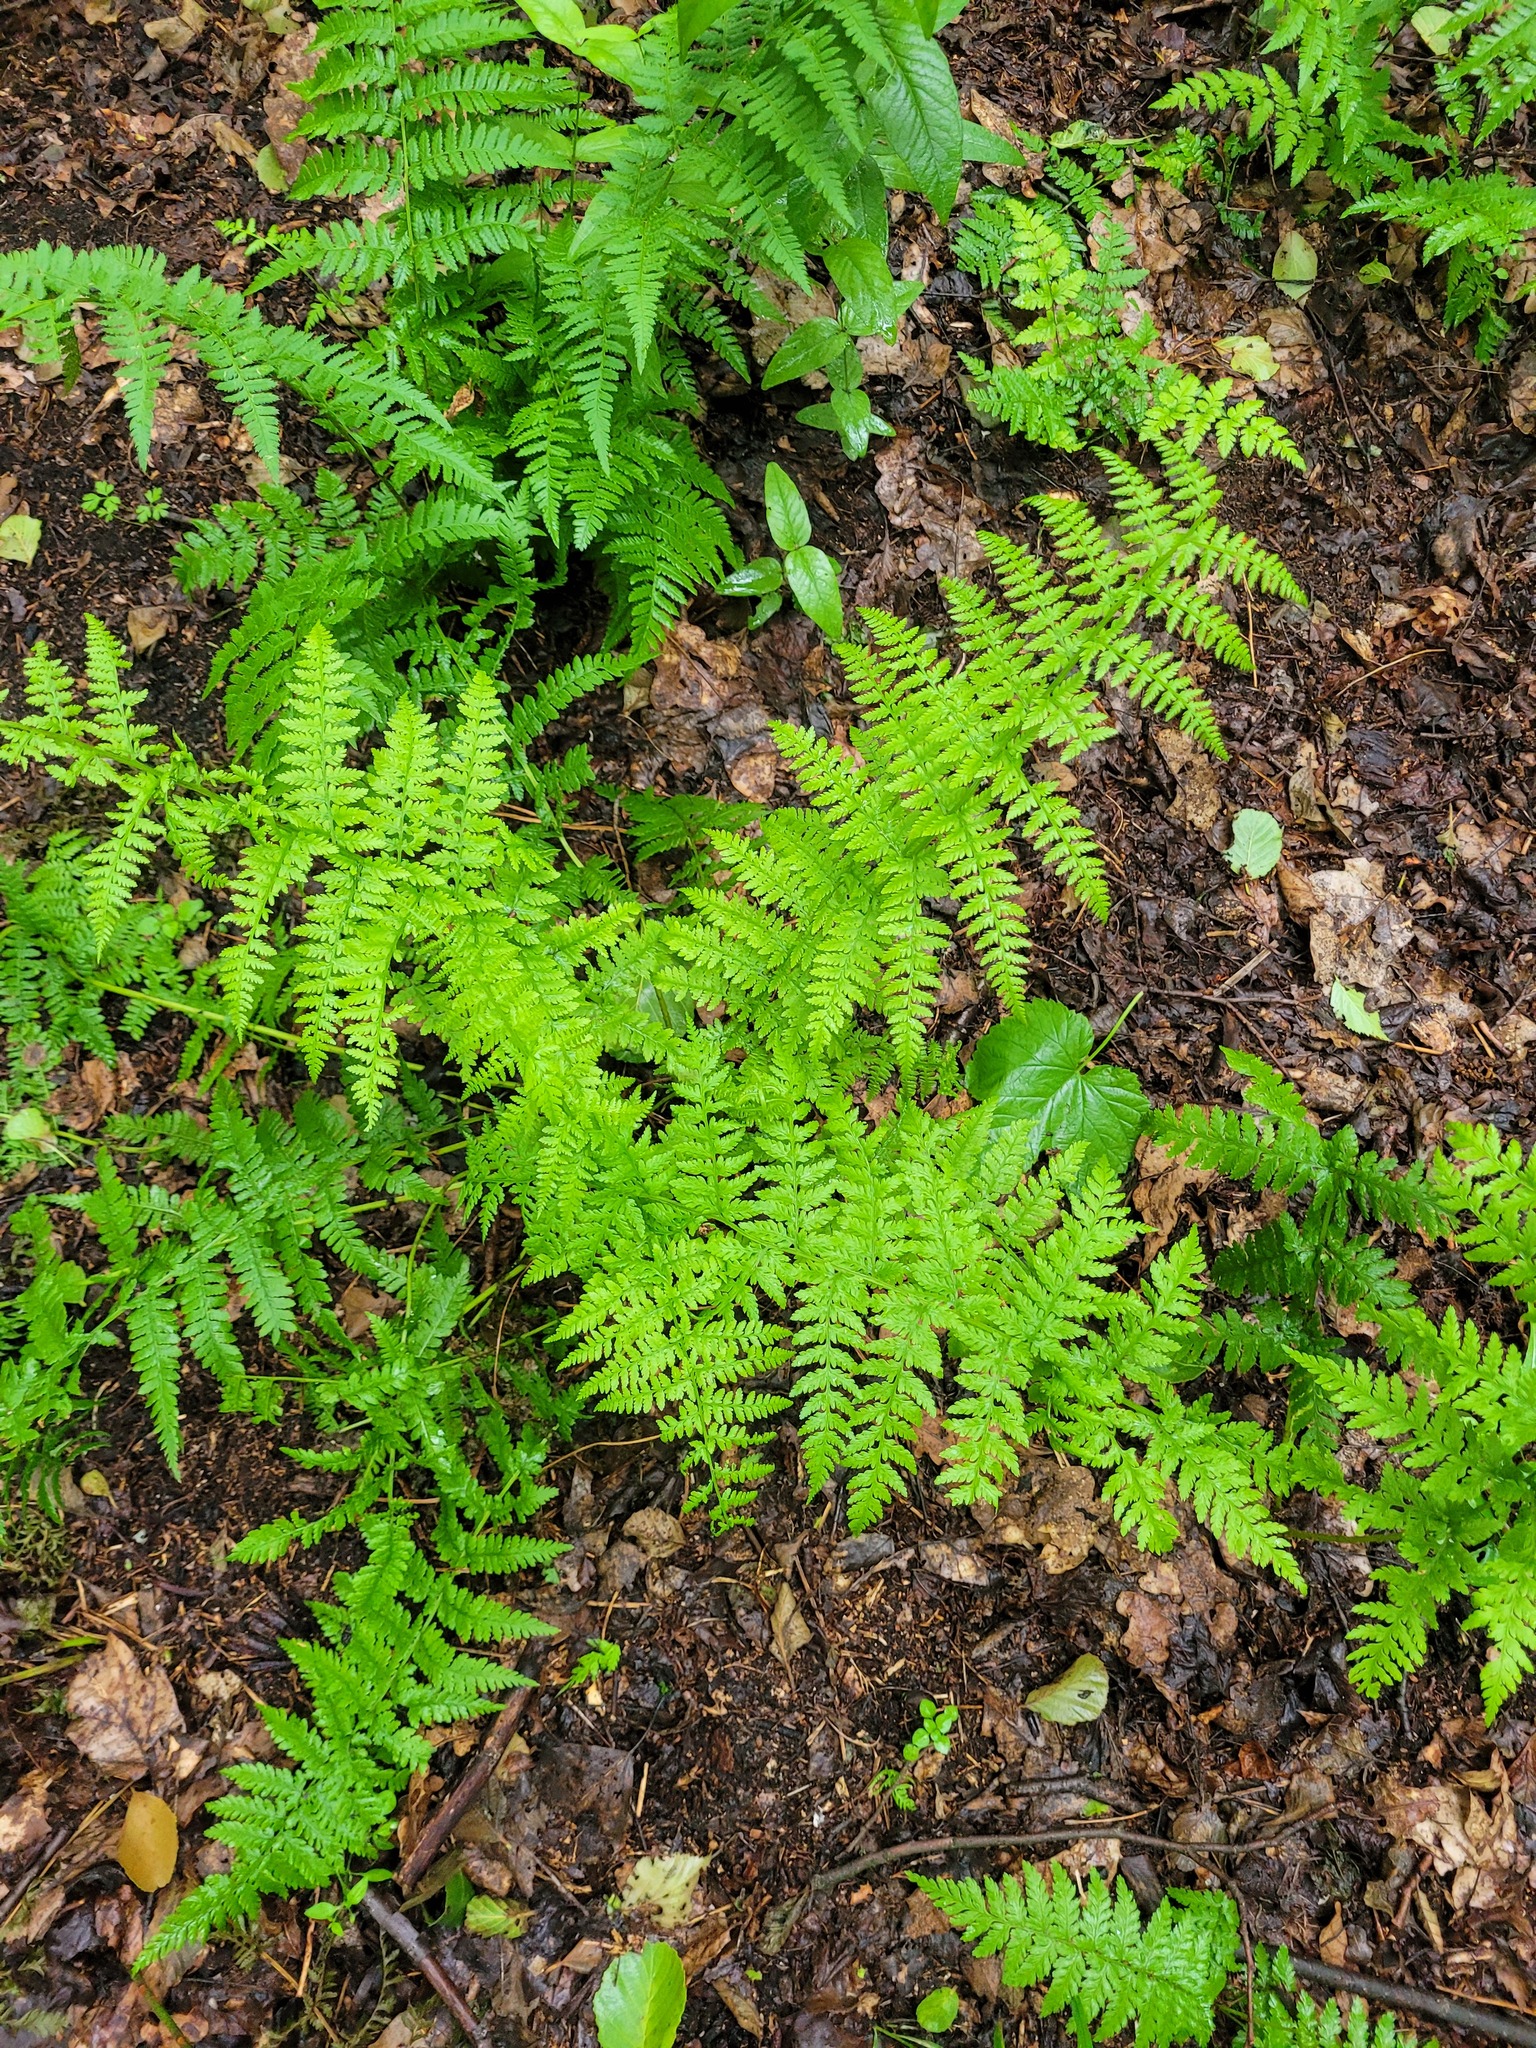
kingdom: Plantae
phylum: Tracheophyta
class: Polypodiopsida
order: Polypodiales
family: Athyriaceae
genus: Athyrium
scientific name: Athyrium filix-femina
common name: Lady fern
